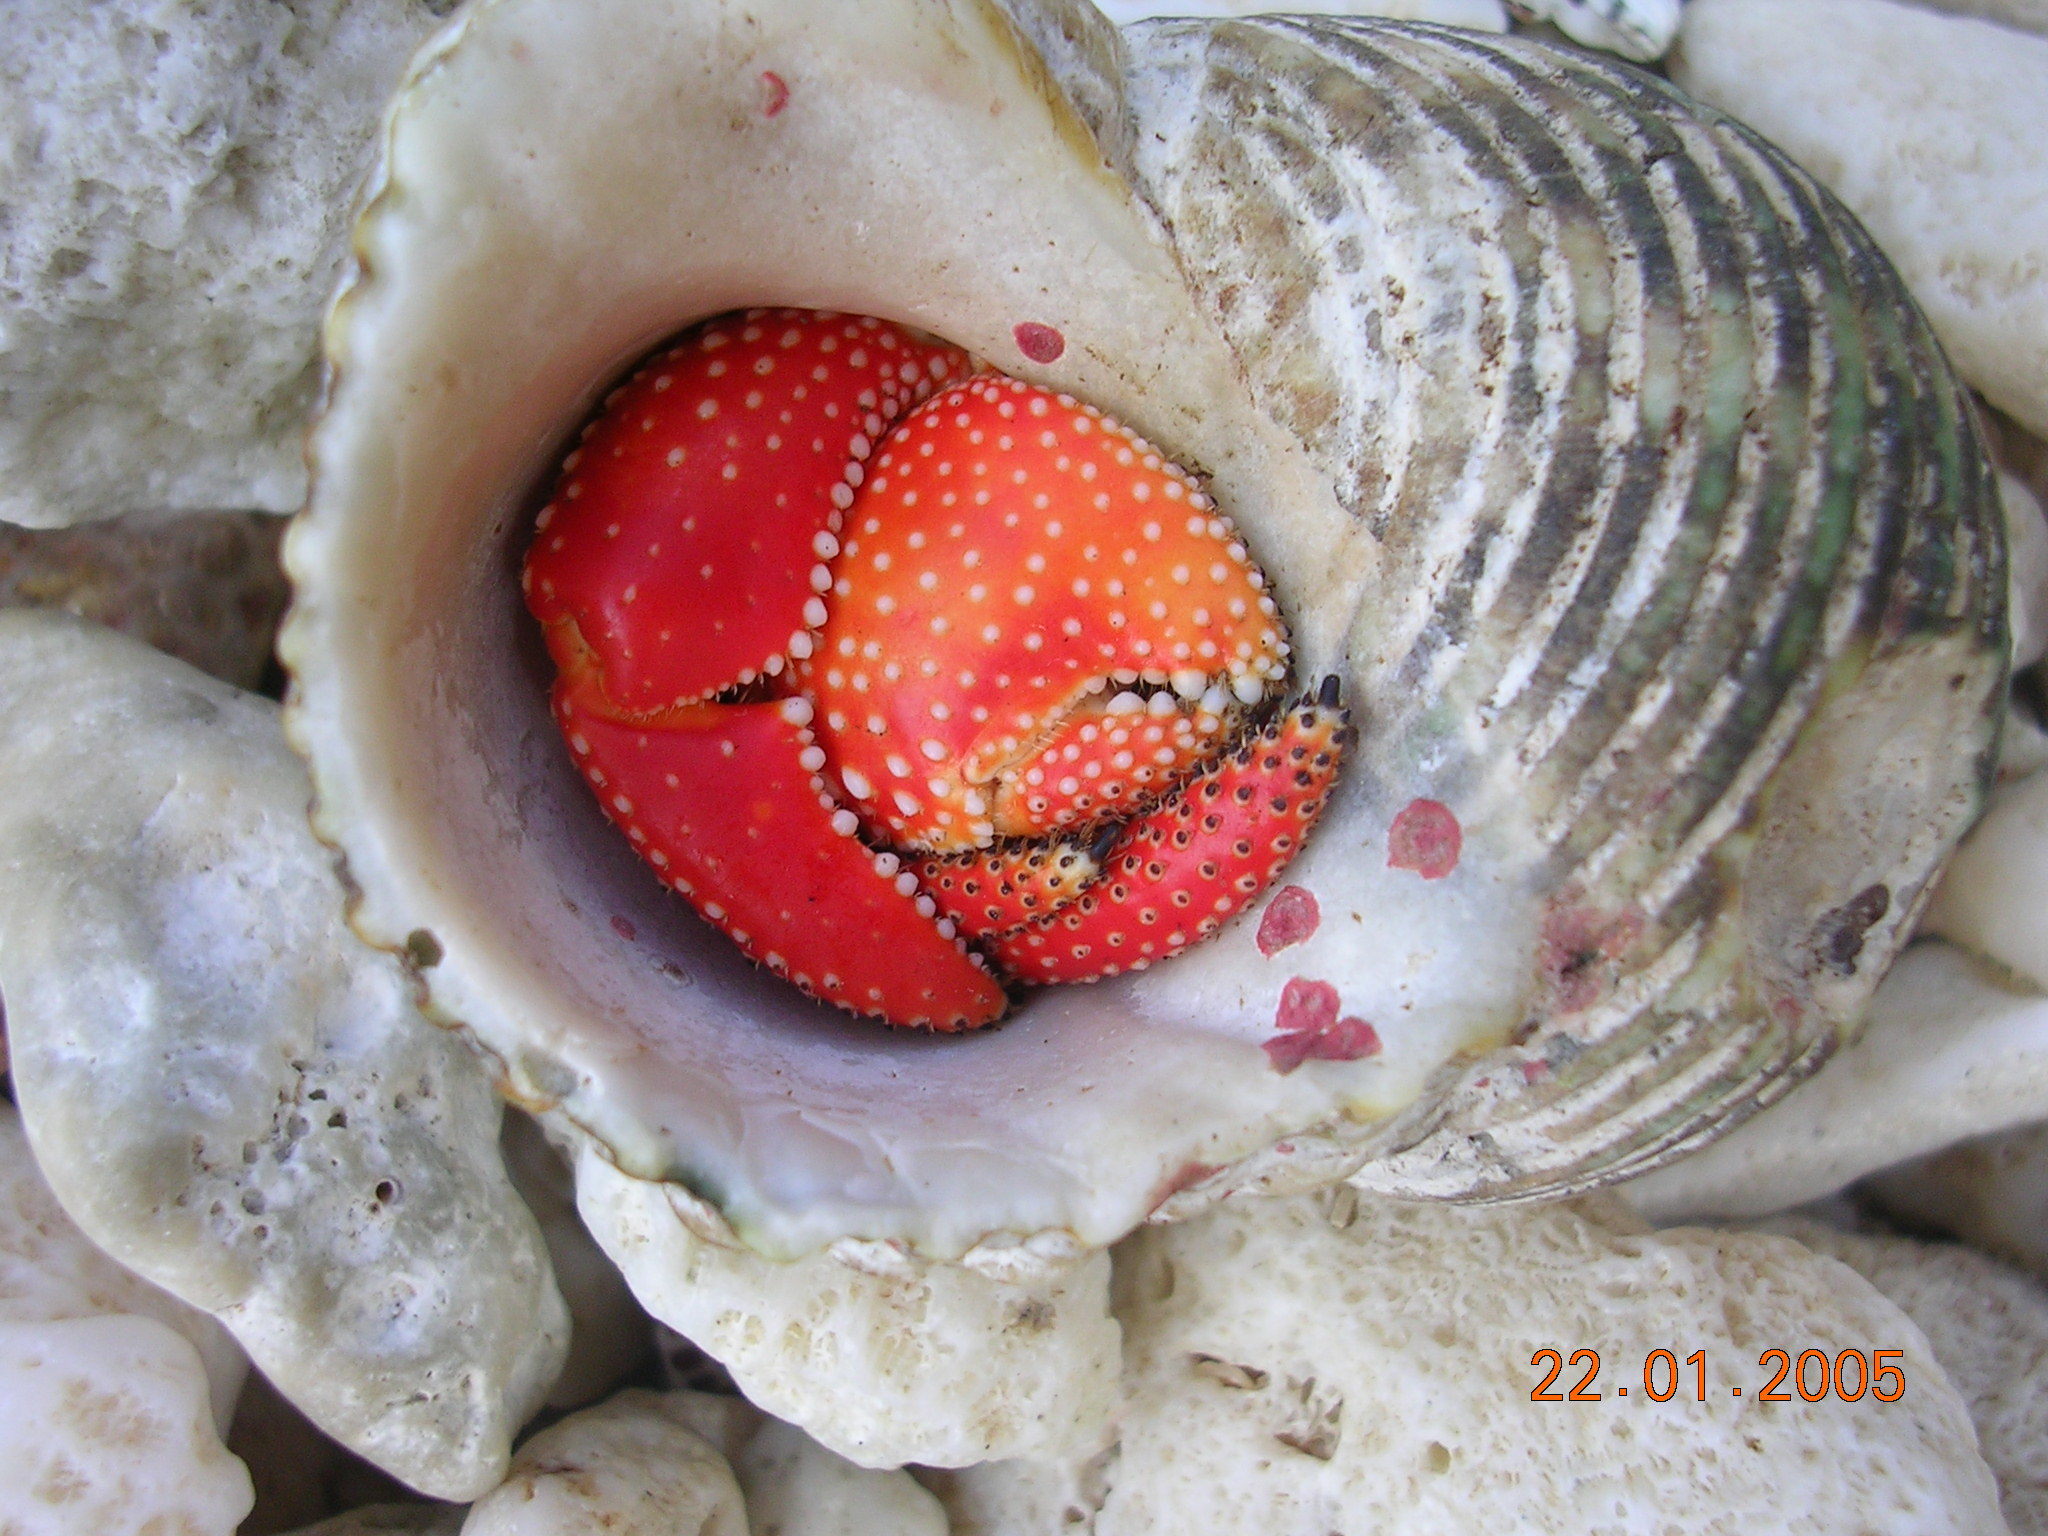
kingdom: Animalia
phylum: Arthropoda
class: Malacostraca
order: Decapoda
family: Coenobitidae
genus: Coenobita
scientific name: Coenobita perlatus
